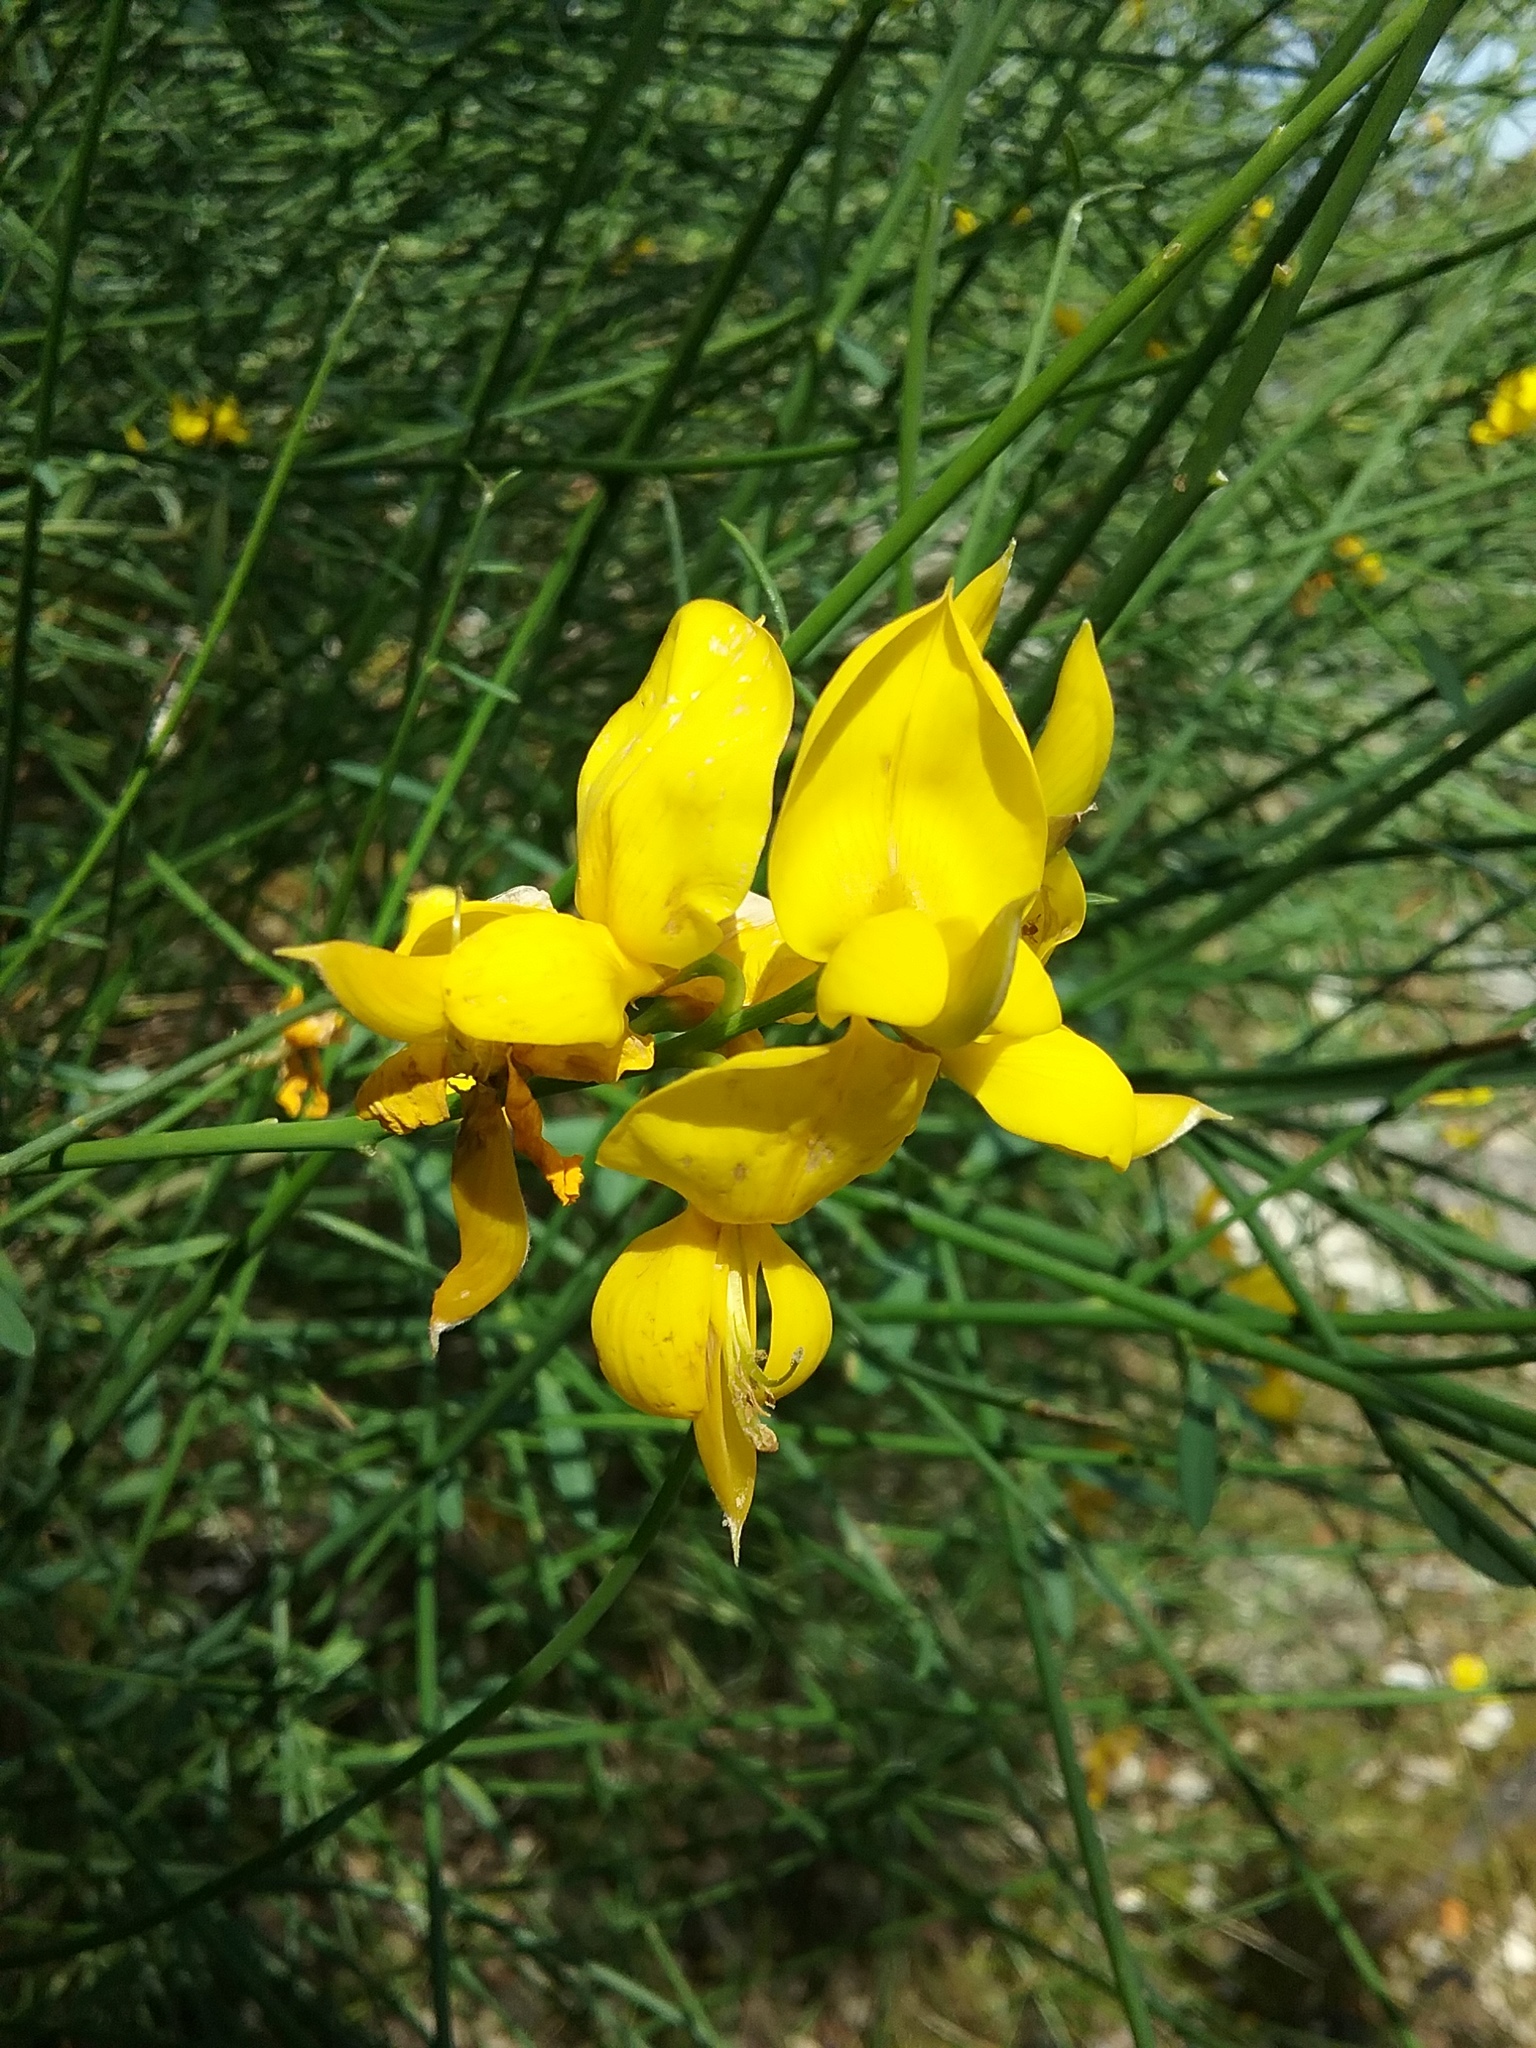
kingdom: Plantae
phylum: Tracheophyta
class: Magnoliopsida
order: Fabales
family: Fabaceae
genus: Spartium
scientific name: Spartium junceum
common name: Spanish broom
